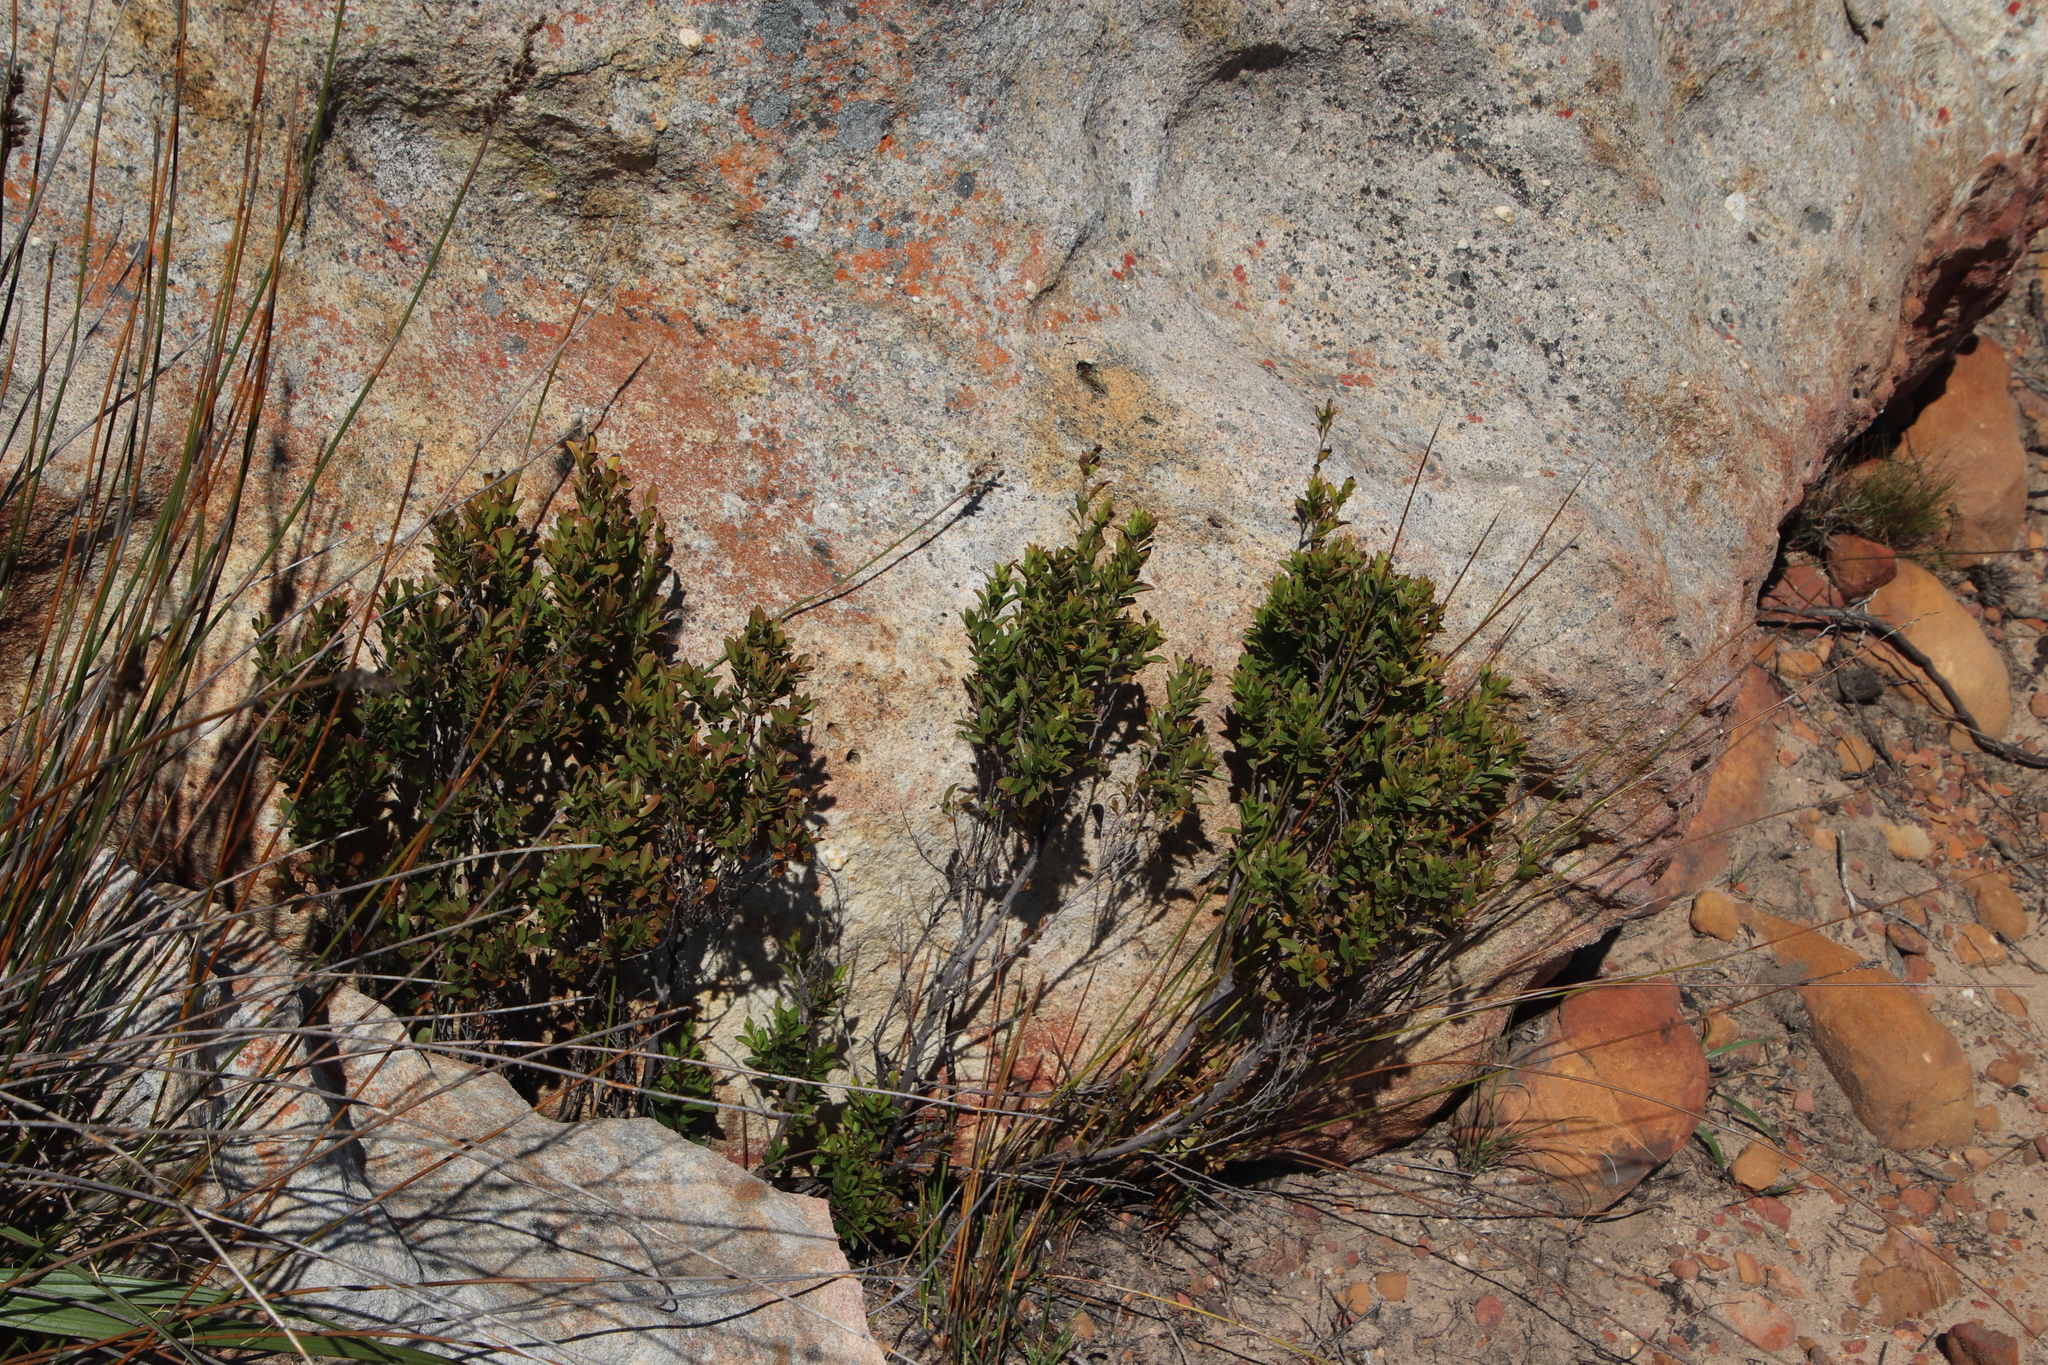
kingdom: Plantae
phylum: Tracheophyta
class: Magnoliopsida
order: Ericales
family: Ebenaceae
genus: Diospyros
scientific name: Diospyros glabra
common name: Fynbos star apple
